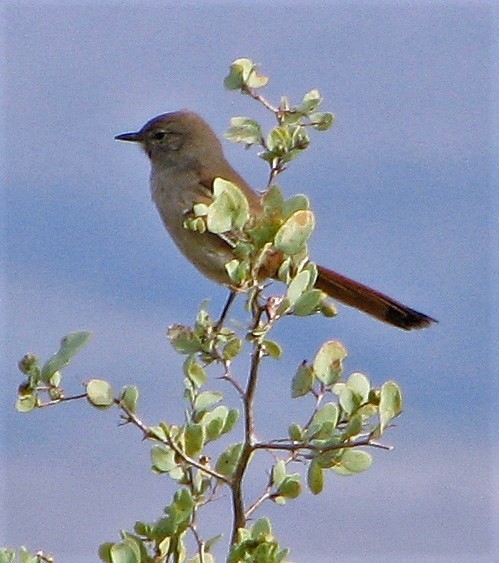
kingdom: Animalia
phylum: Chordata
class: Aves
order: Passeriformes
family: Furnariidae
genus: Asthenes
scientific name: Asthenes steinbachi
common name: Steinbach's canastero
